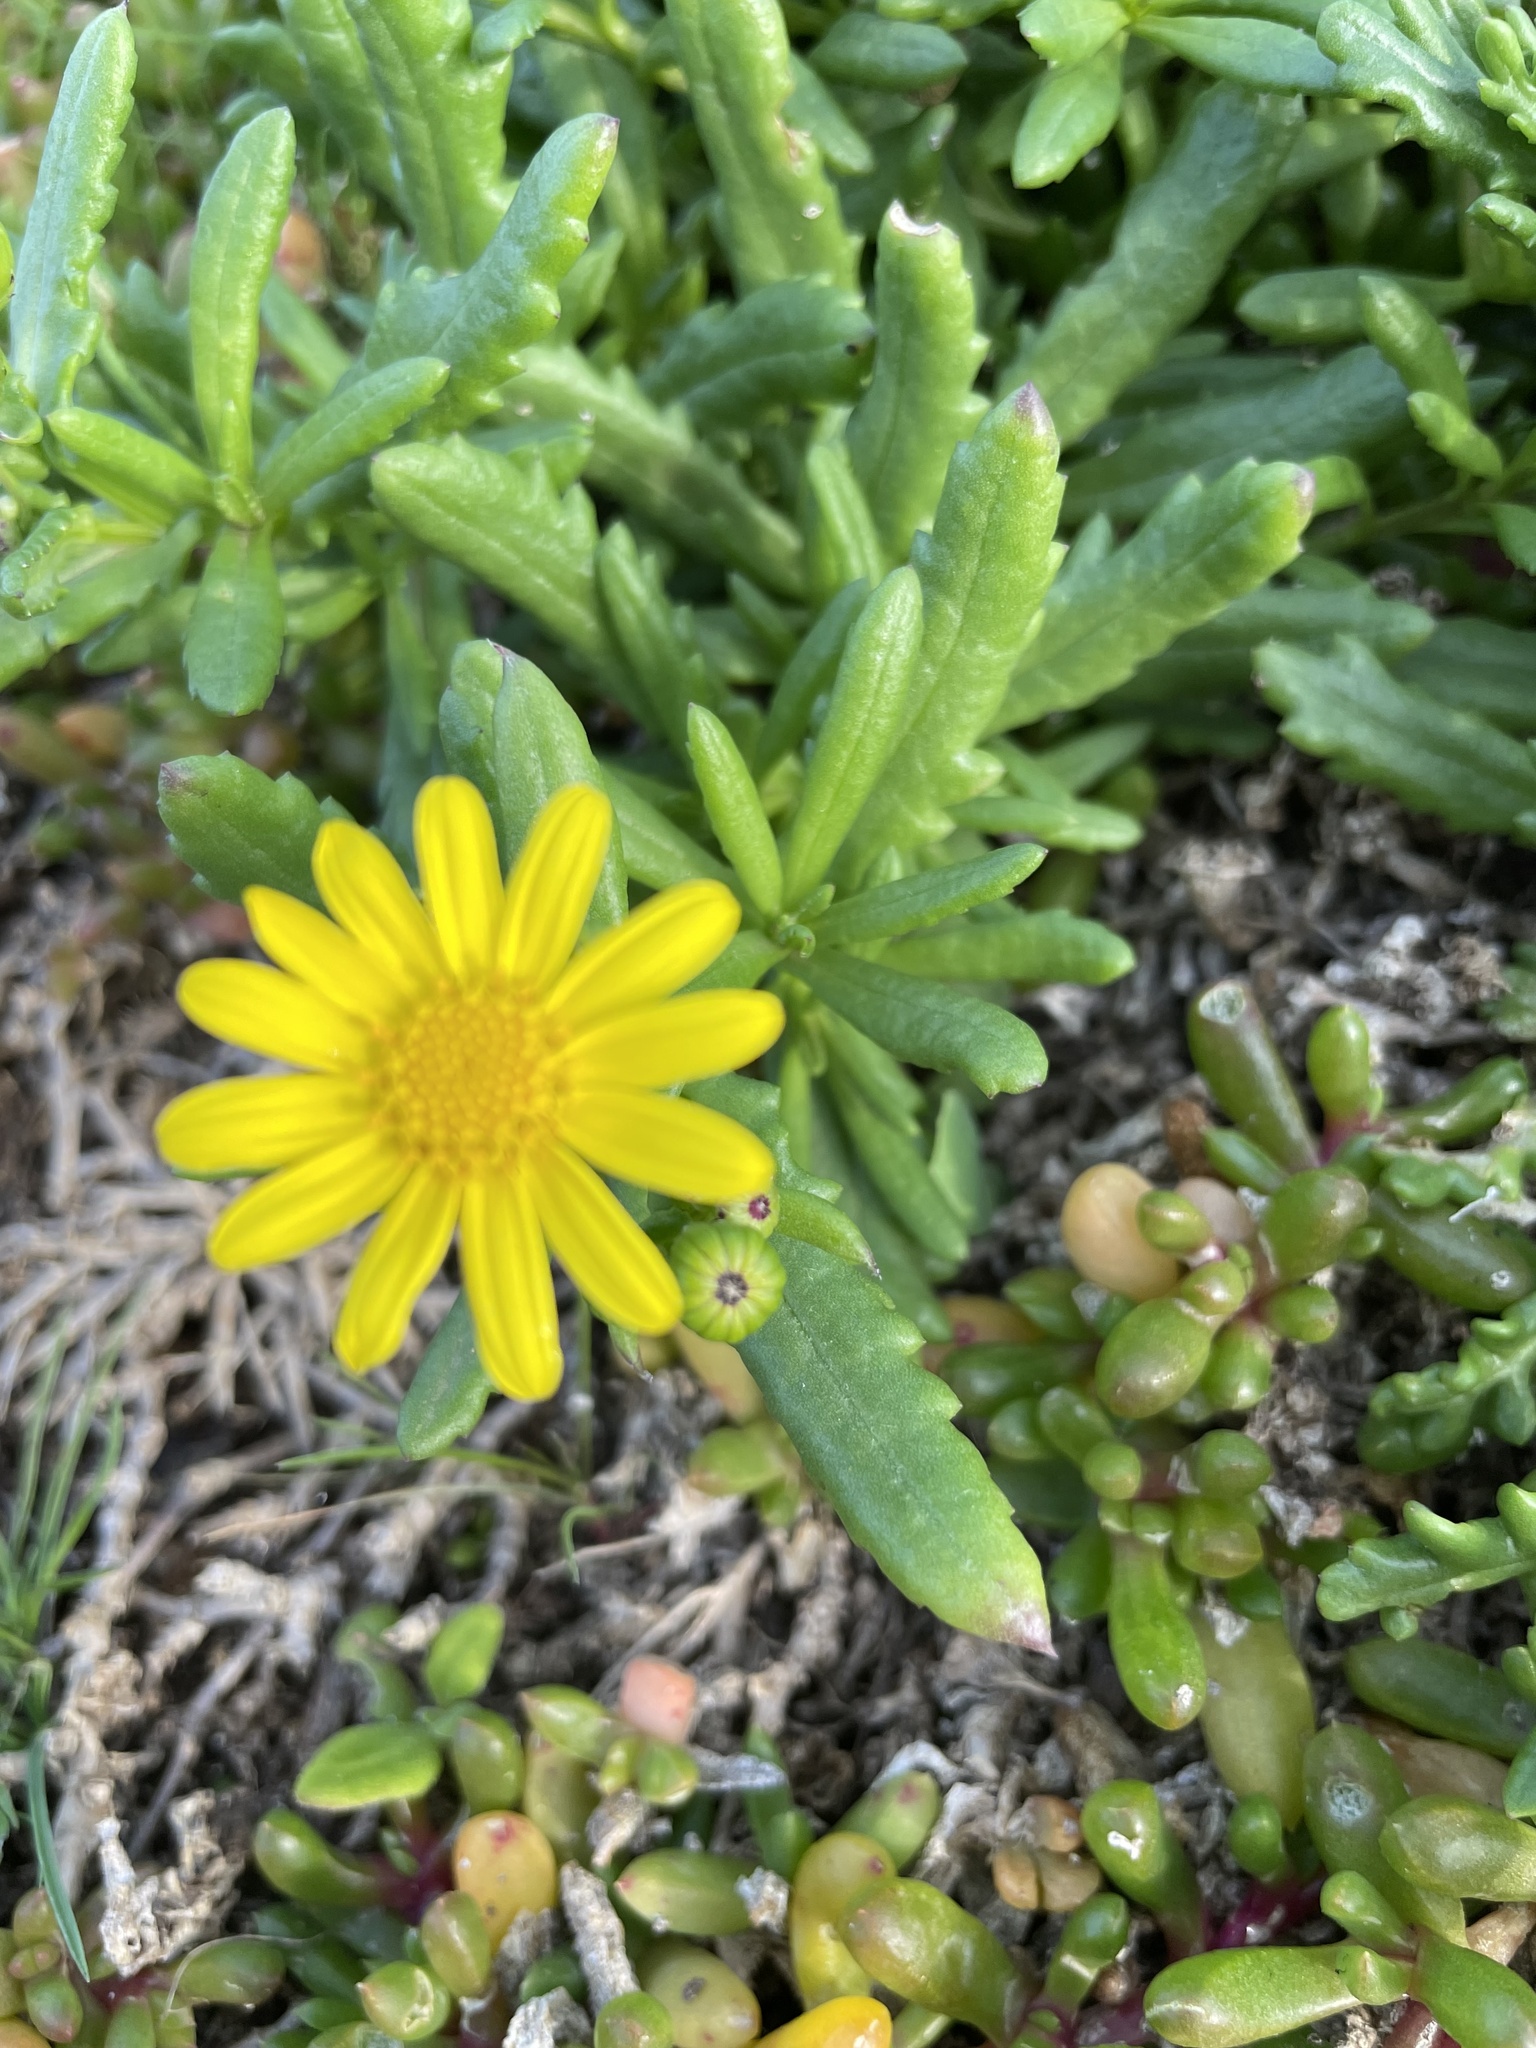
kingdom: Plantae
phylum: Tracheophyta
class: Magnoliopsida
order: Asterales
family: Asteraceae
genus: Senecio
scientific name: Senecio spathulatus
